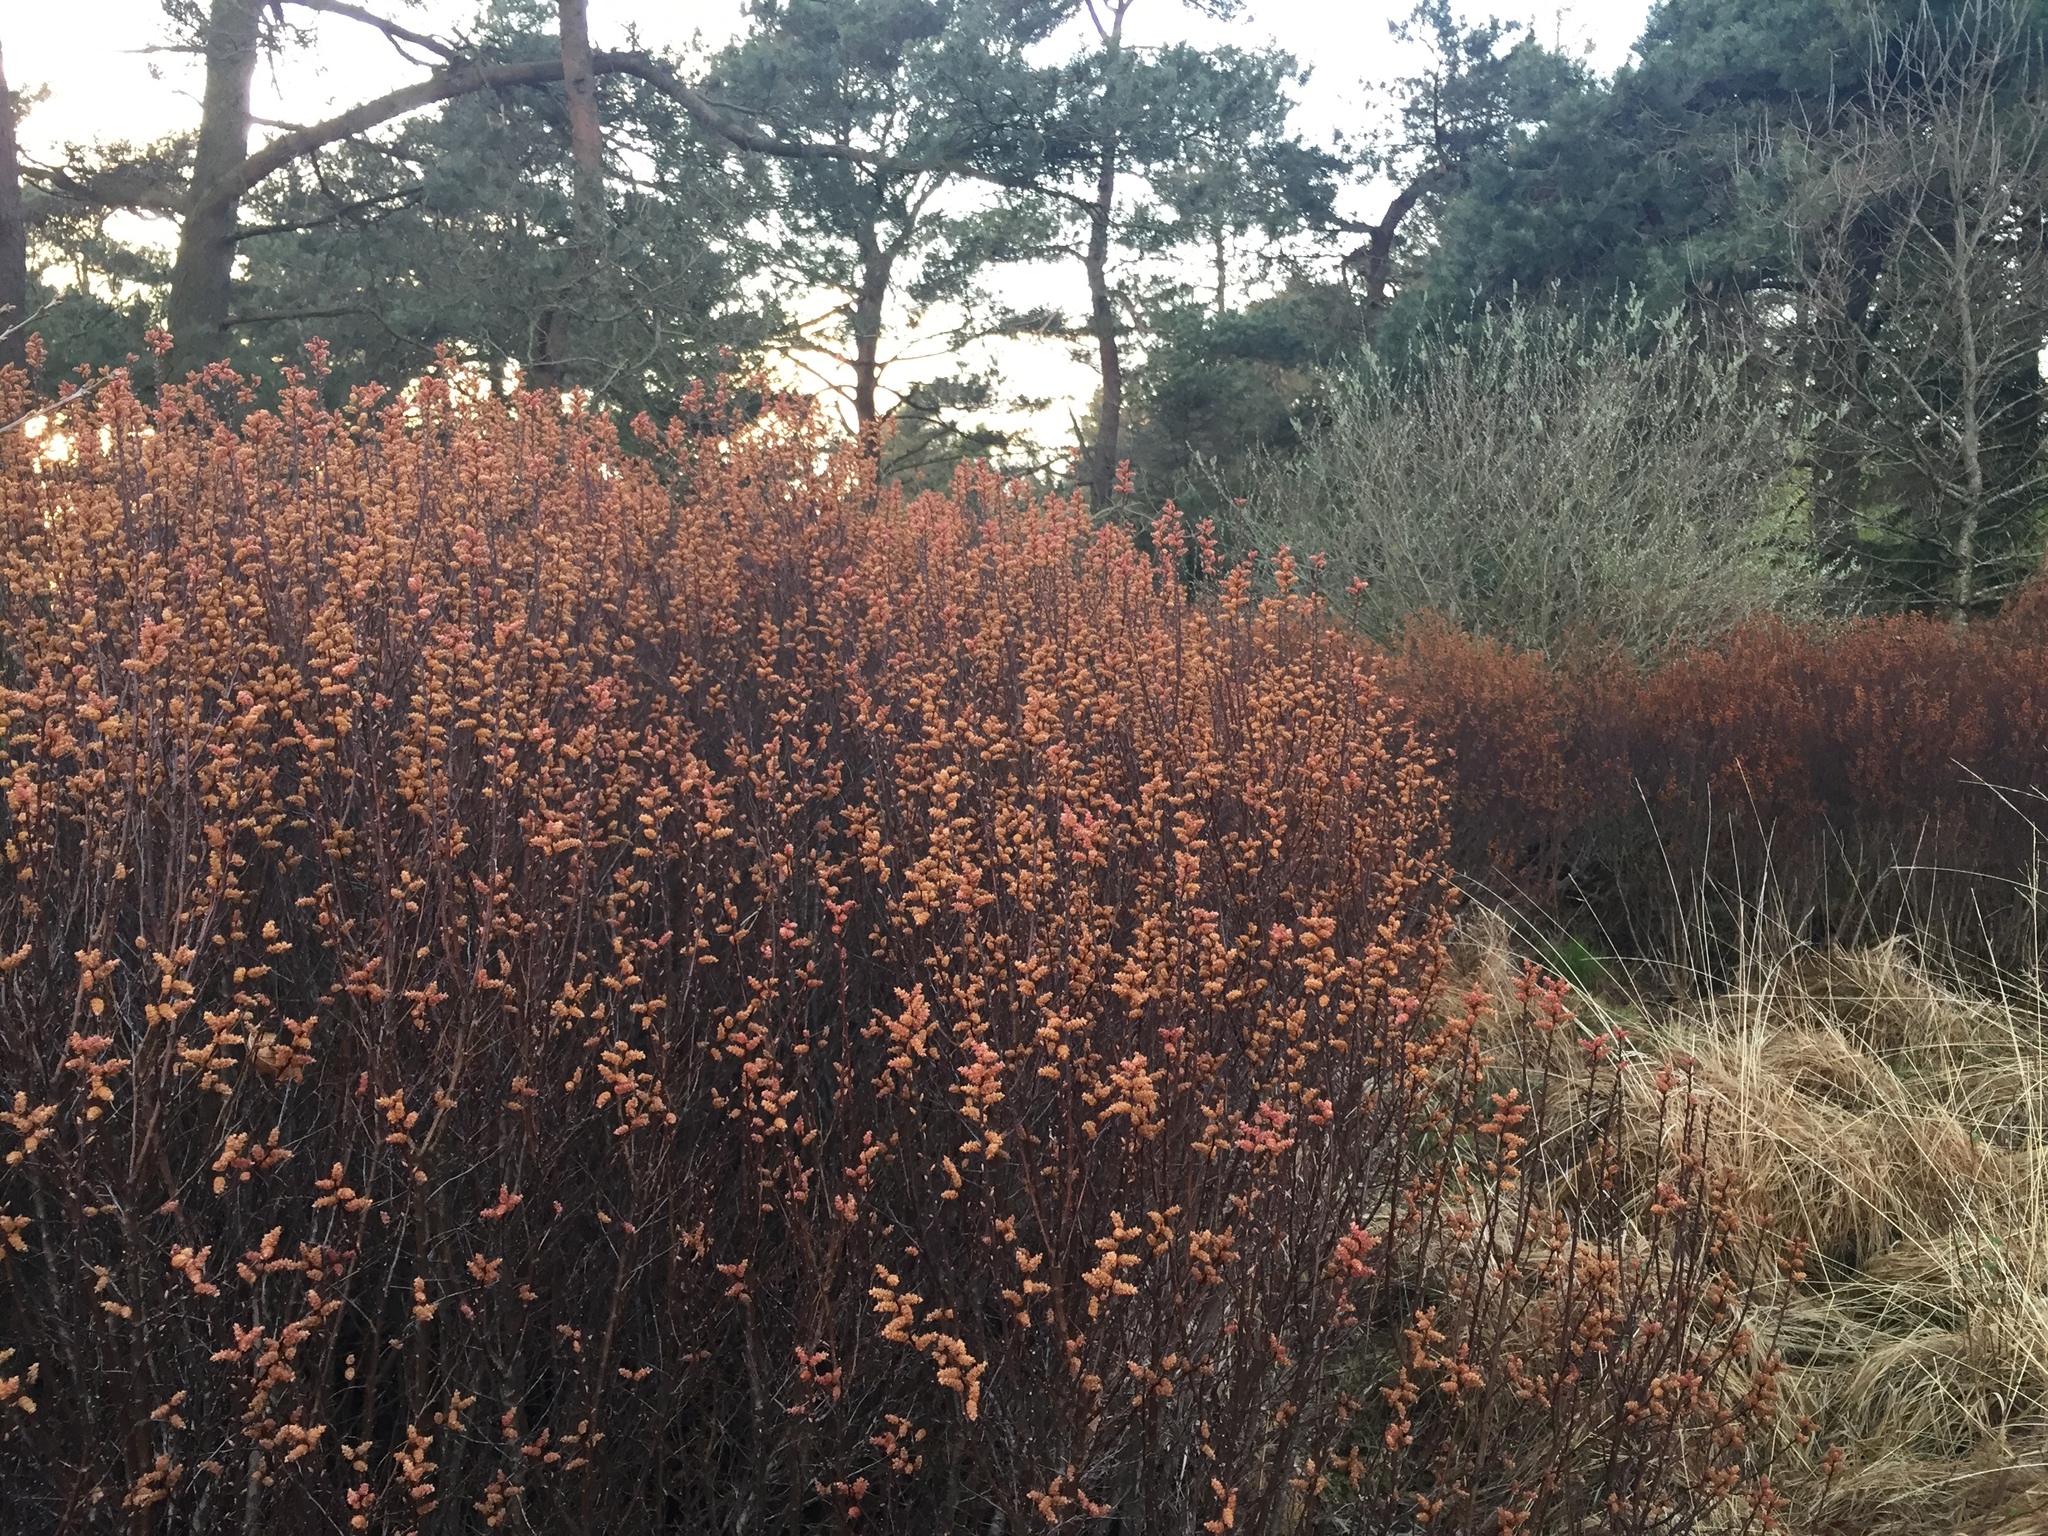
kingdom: Plantae
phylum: Tracheophyta
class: Magnoliopsida
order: Fagales
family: Myricaceae
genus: Myrica
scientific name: Myrica gale
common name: Sweet gale
